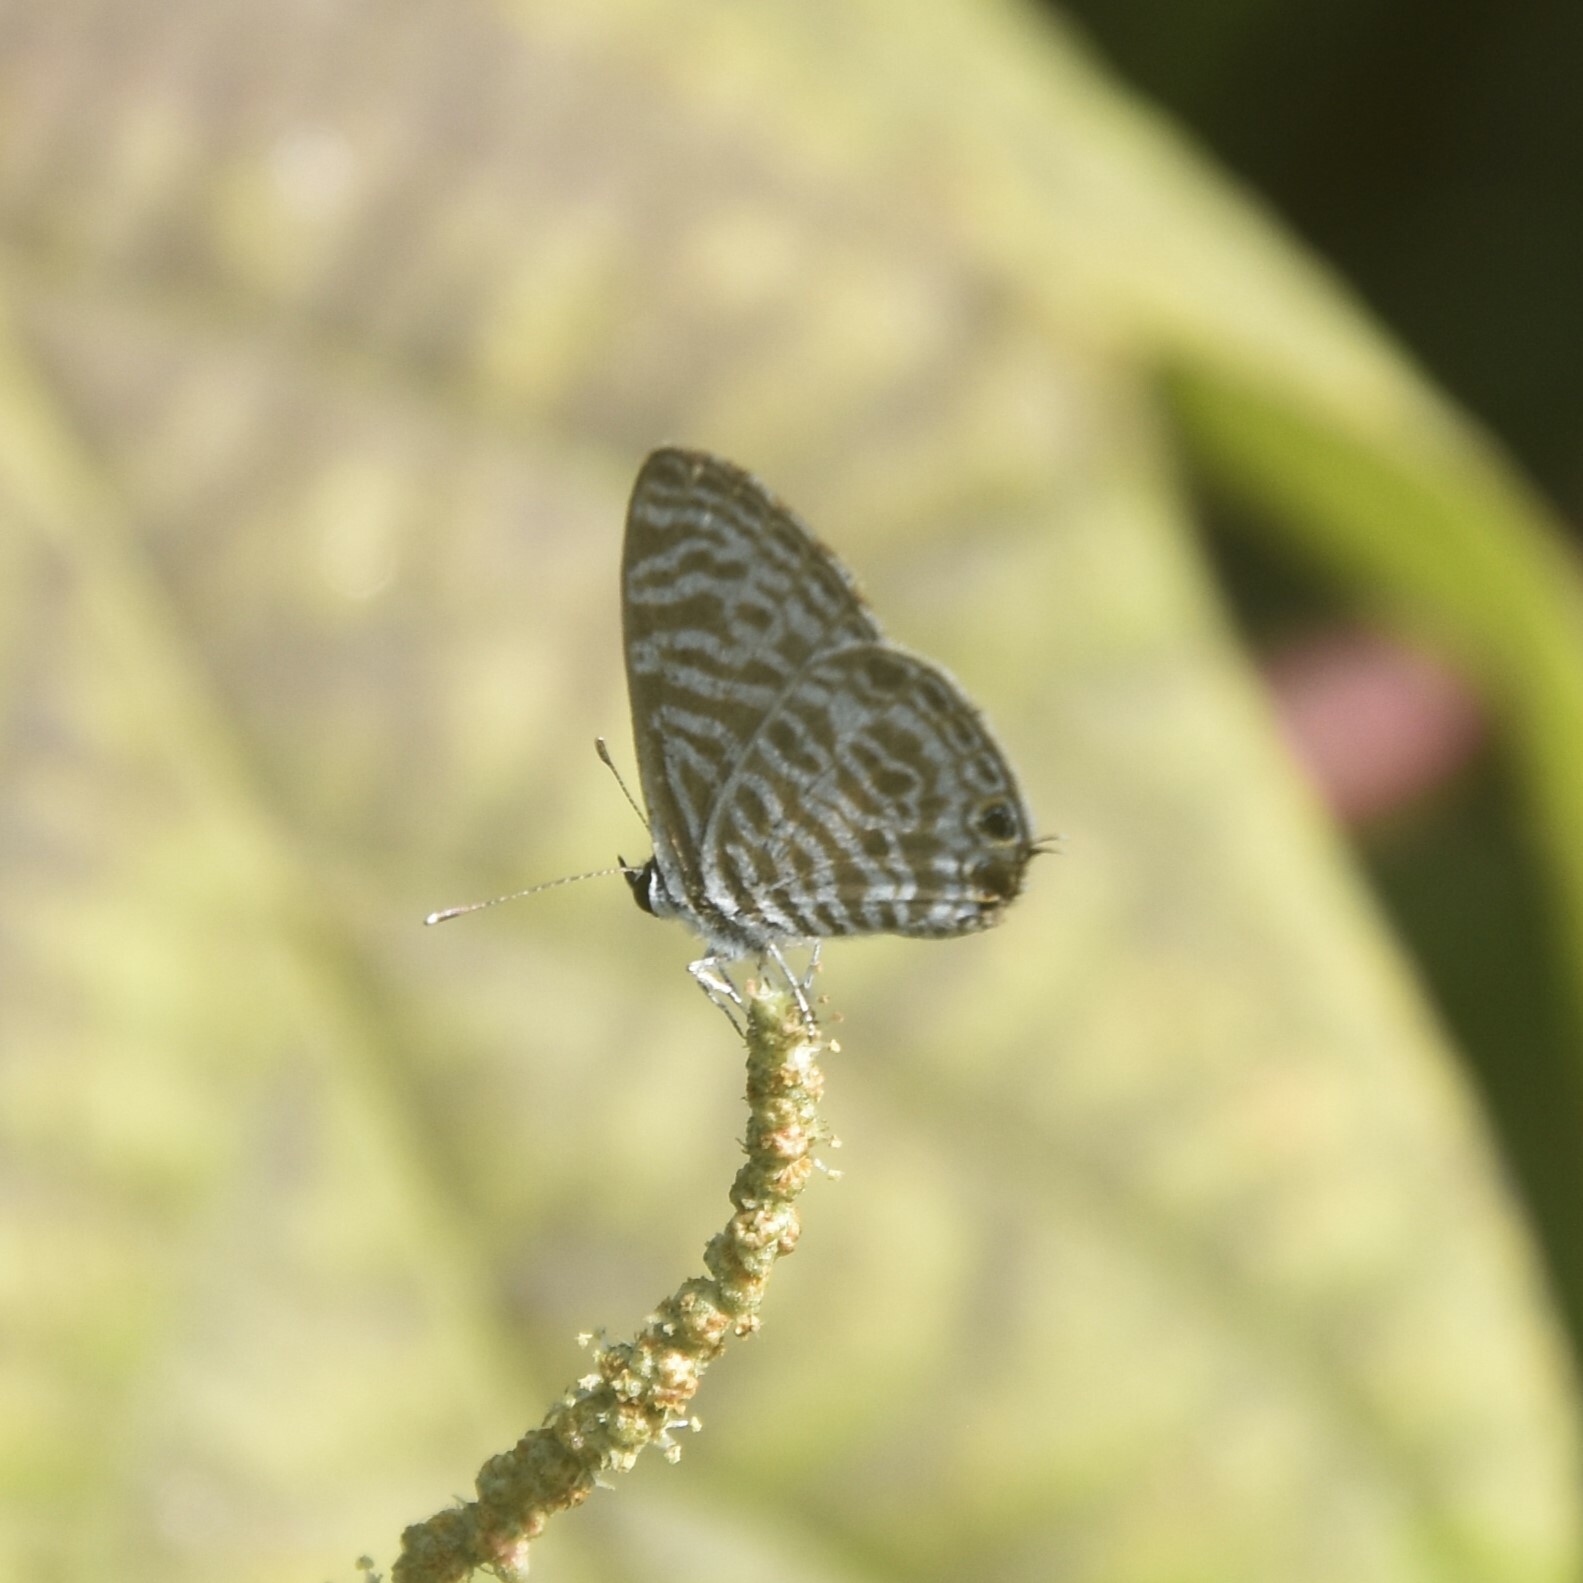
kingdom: Animalia
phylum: Arthropoda
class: Insecta
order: Lepidoptera
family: Lycaenidae
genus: Leptotes
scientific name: Leptotes plinius
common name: Zebra blue
